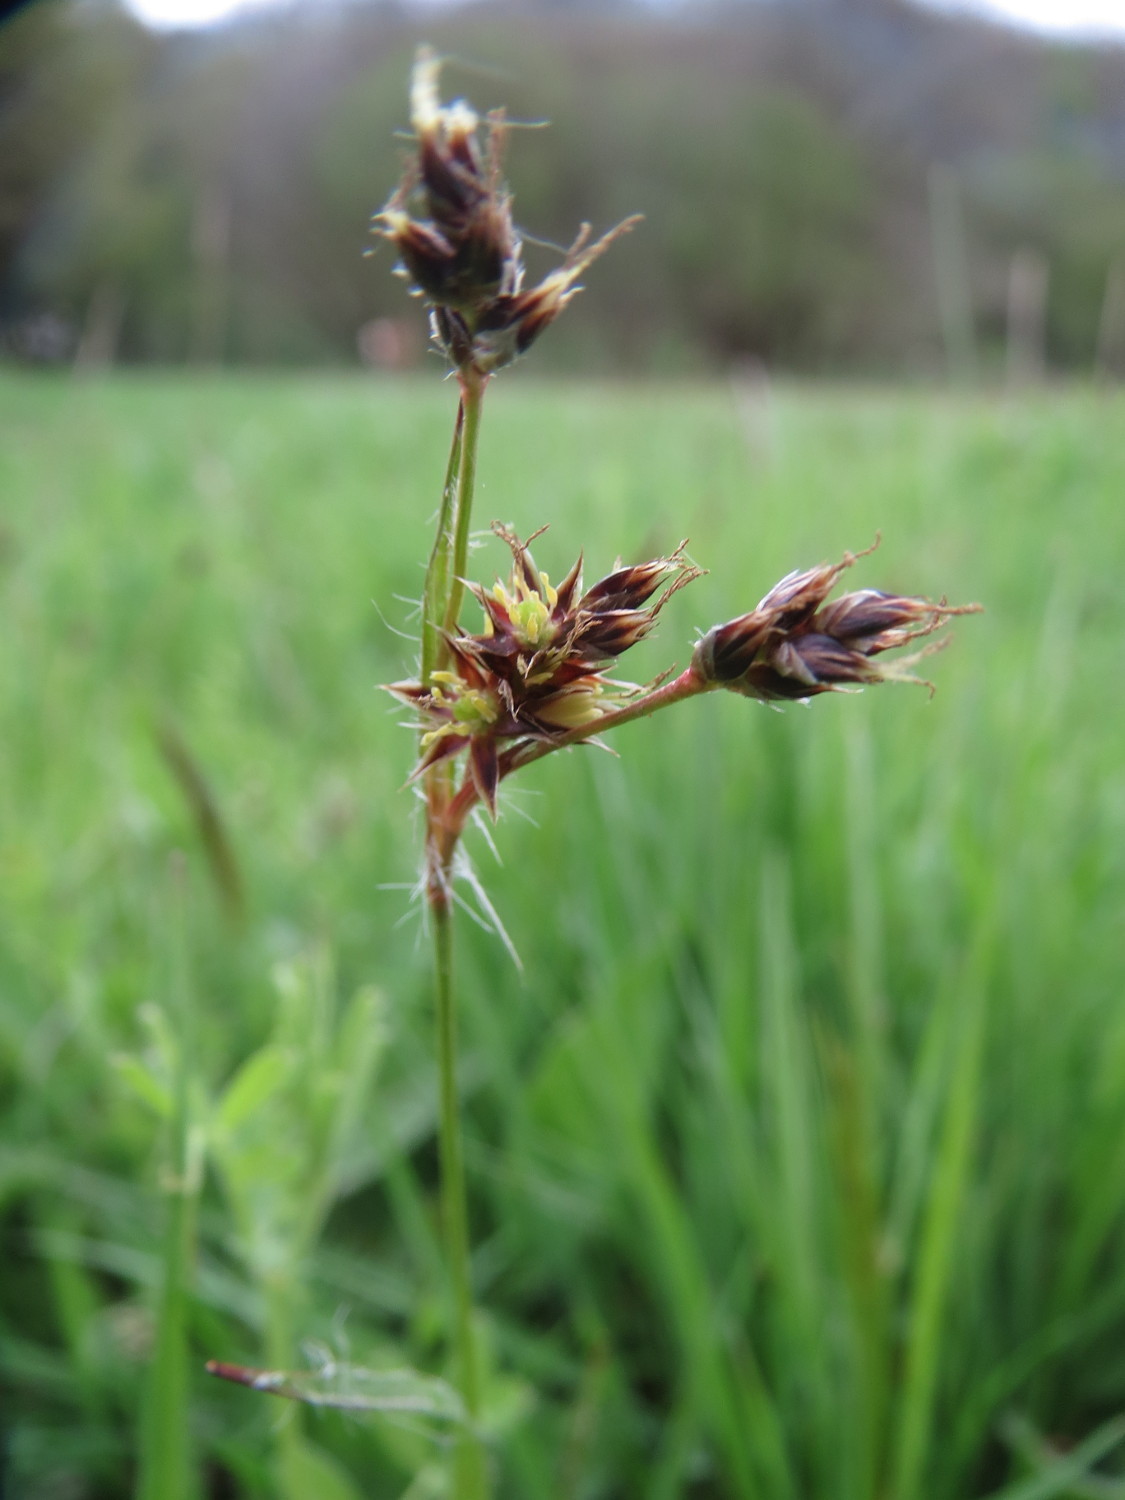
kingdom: Plantae
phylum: Tracheophyta
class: Liliopsida
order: Poales
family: Juncaceae
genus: Luzula
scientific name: Luzula pilosa
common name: Hairy wood-rush
